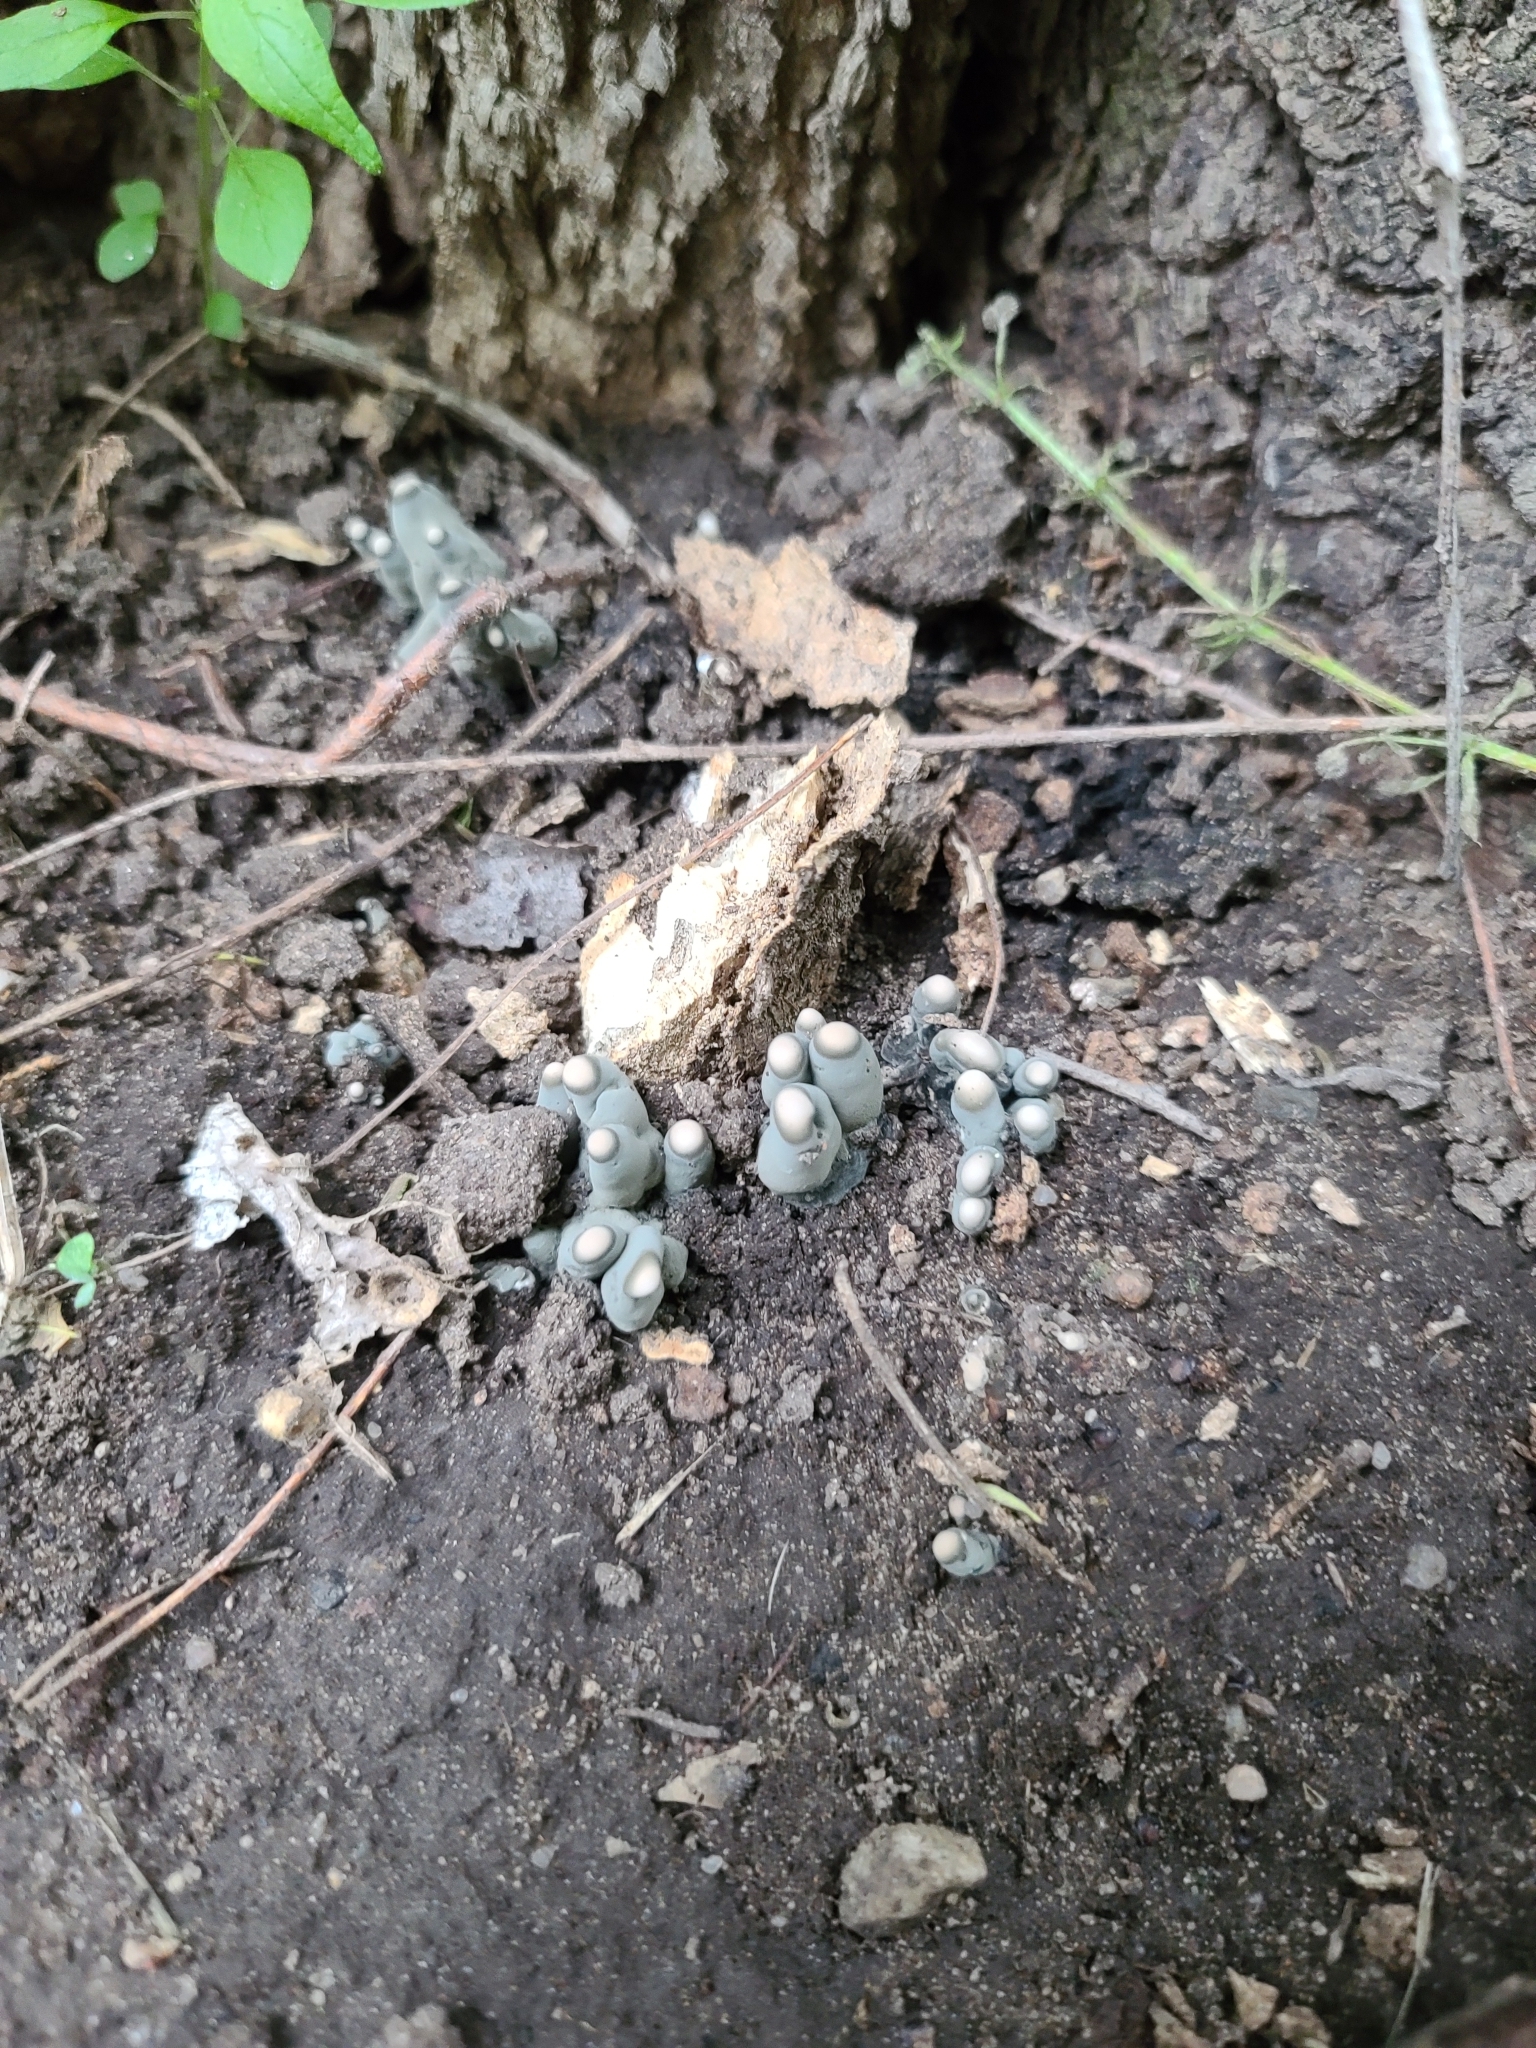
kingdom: Fungi
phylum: Ascomycota
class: Sordariomycetes
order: Xylariales
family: Xylariaceae
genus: Xylaria
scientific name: Xylaria polymorpha
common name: Dead man's fingers
